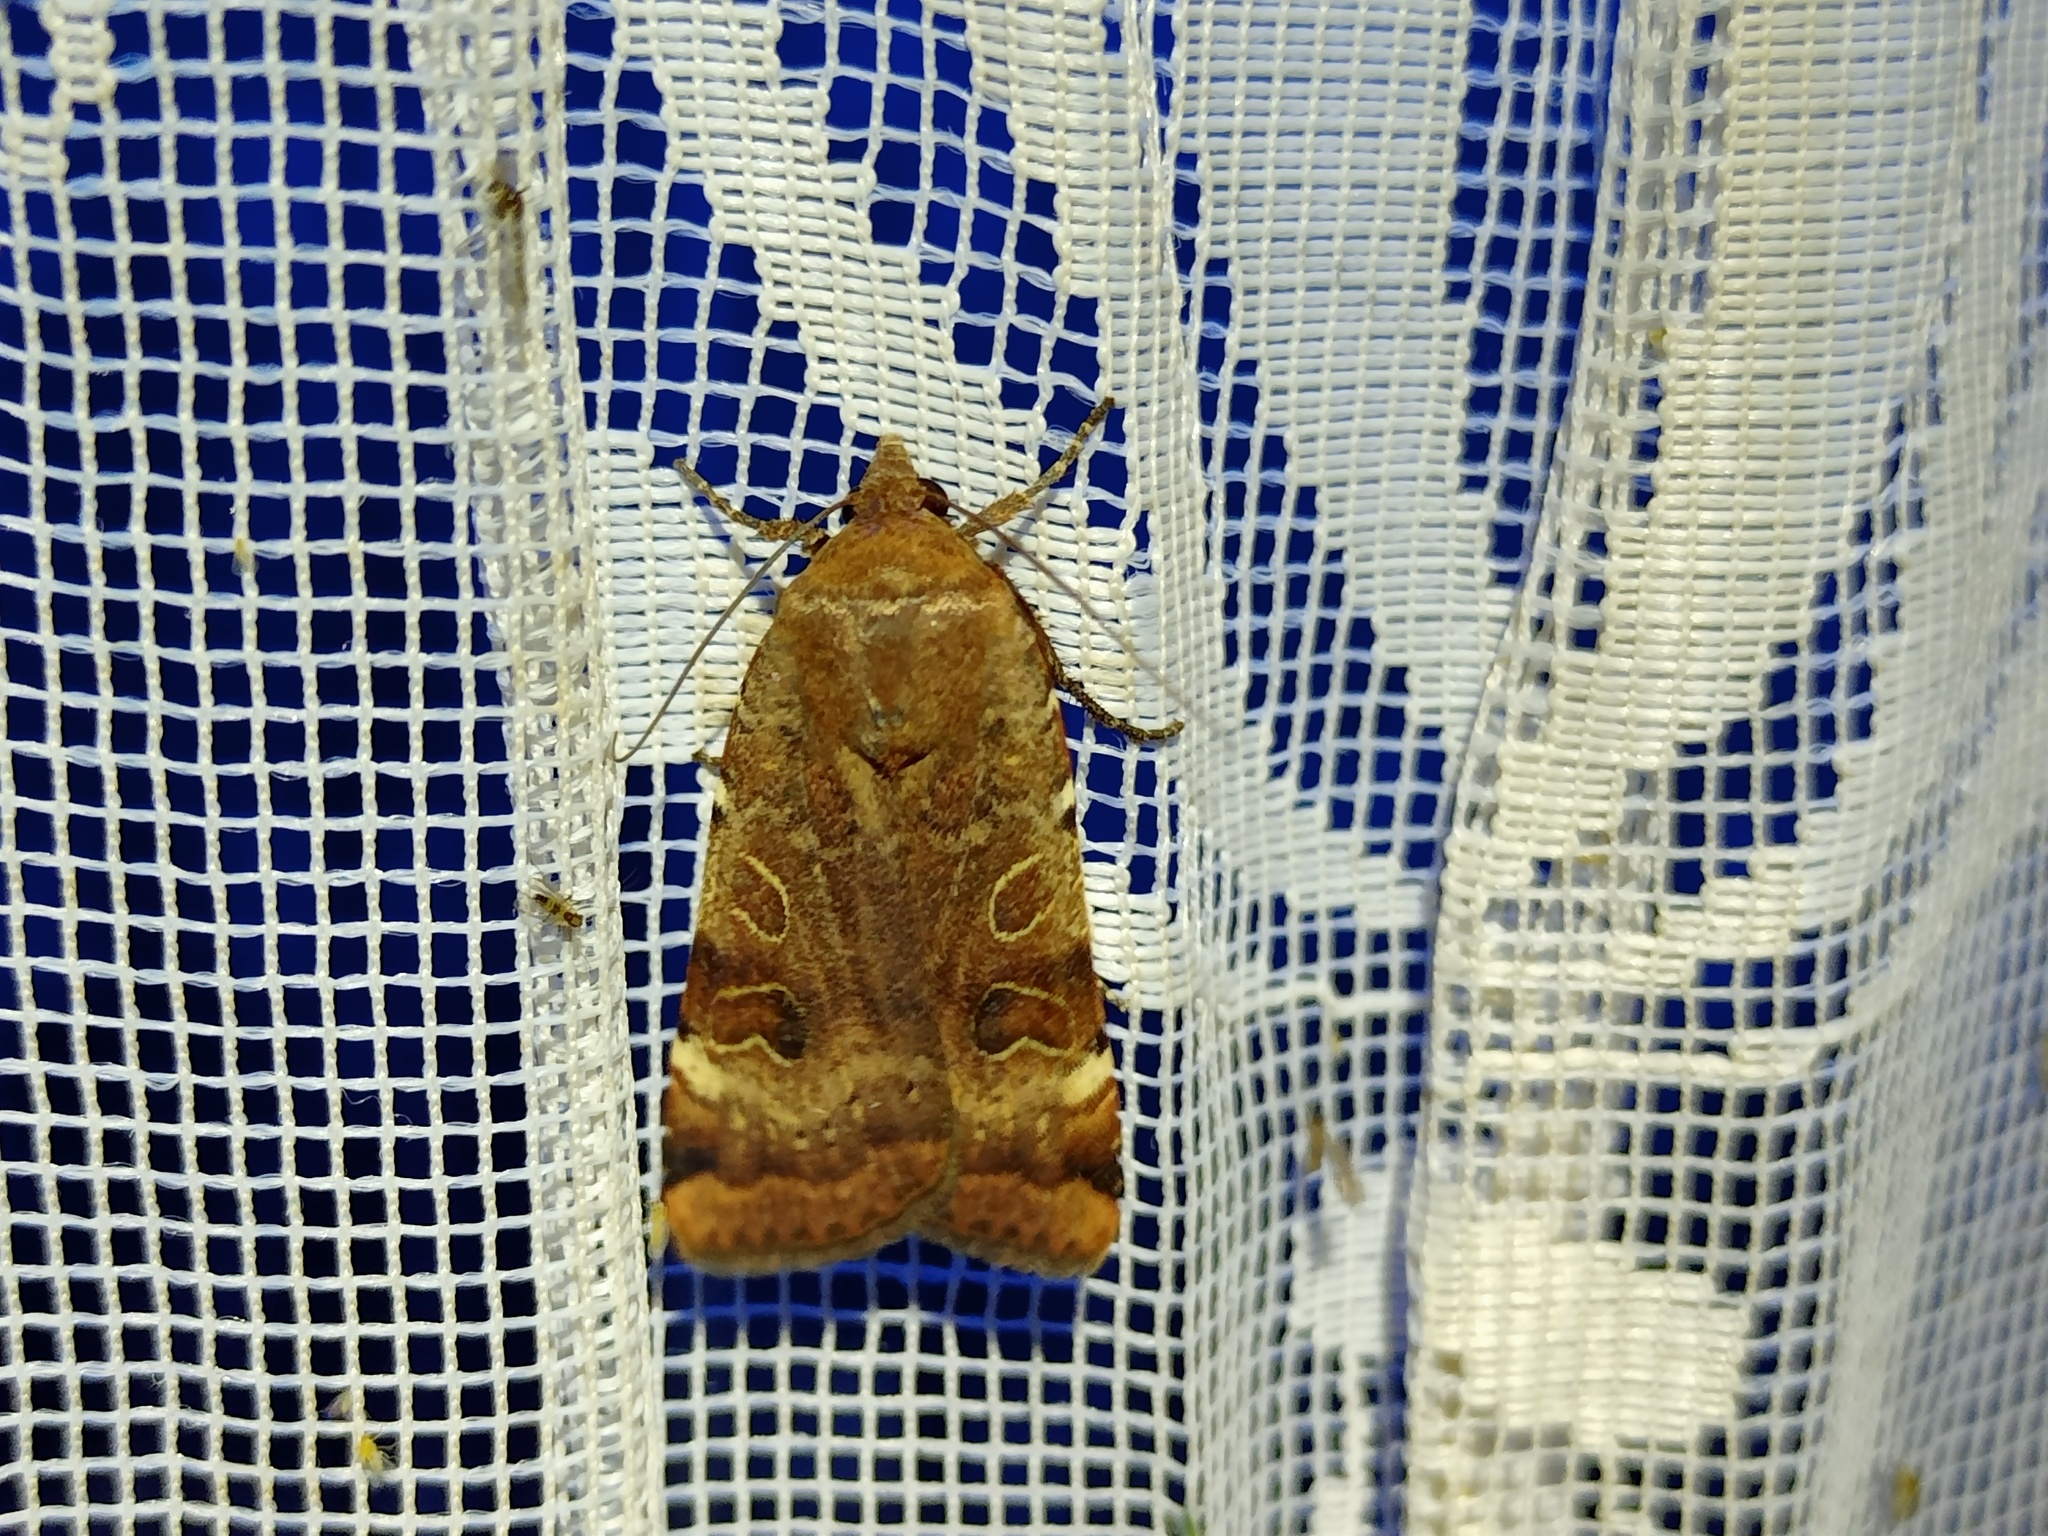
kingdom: Animalia
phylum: Arthropoda
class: Insecta
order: Lepidoptera
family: Noctuidae
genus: Noctua
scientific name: Noctua interposita
